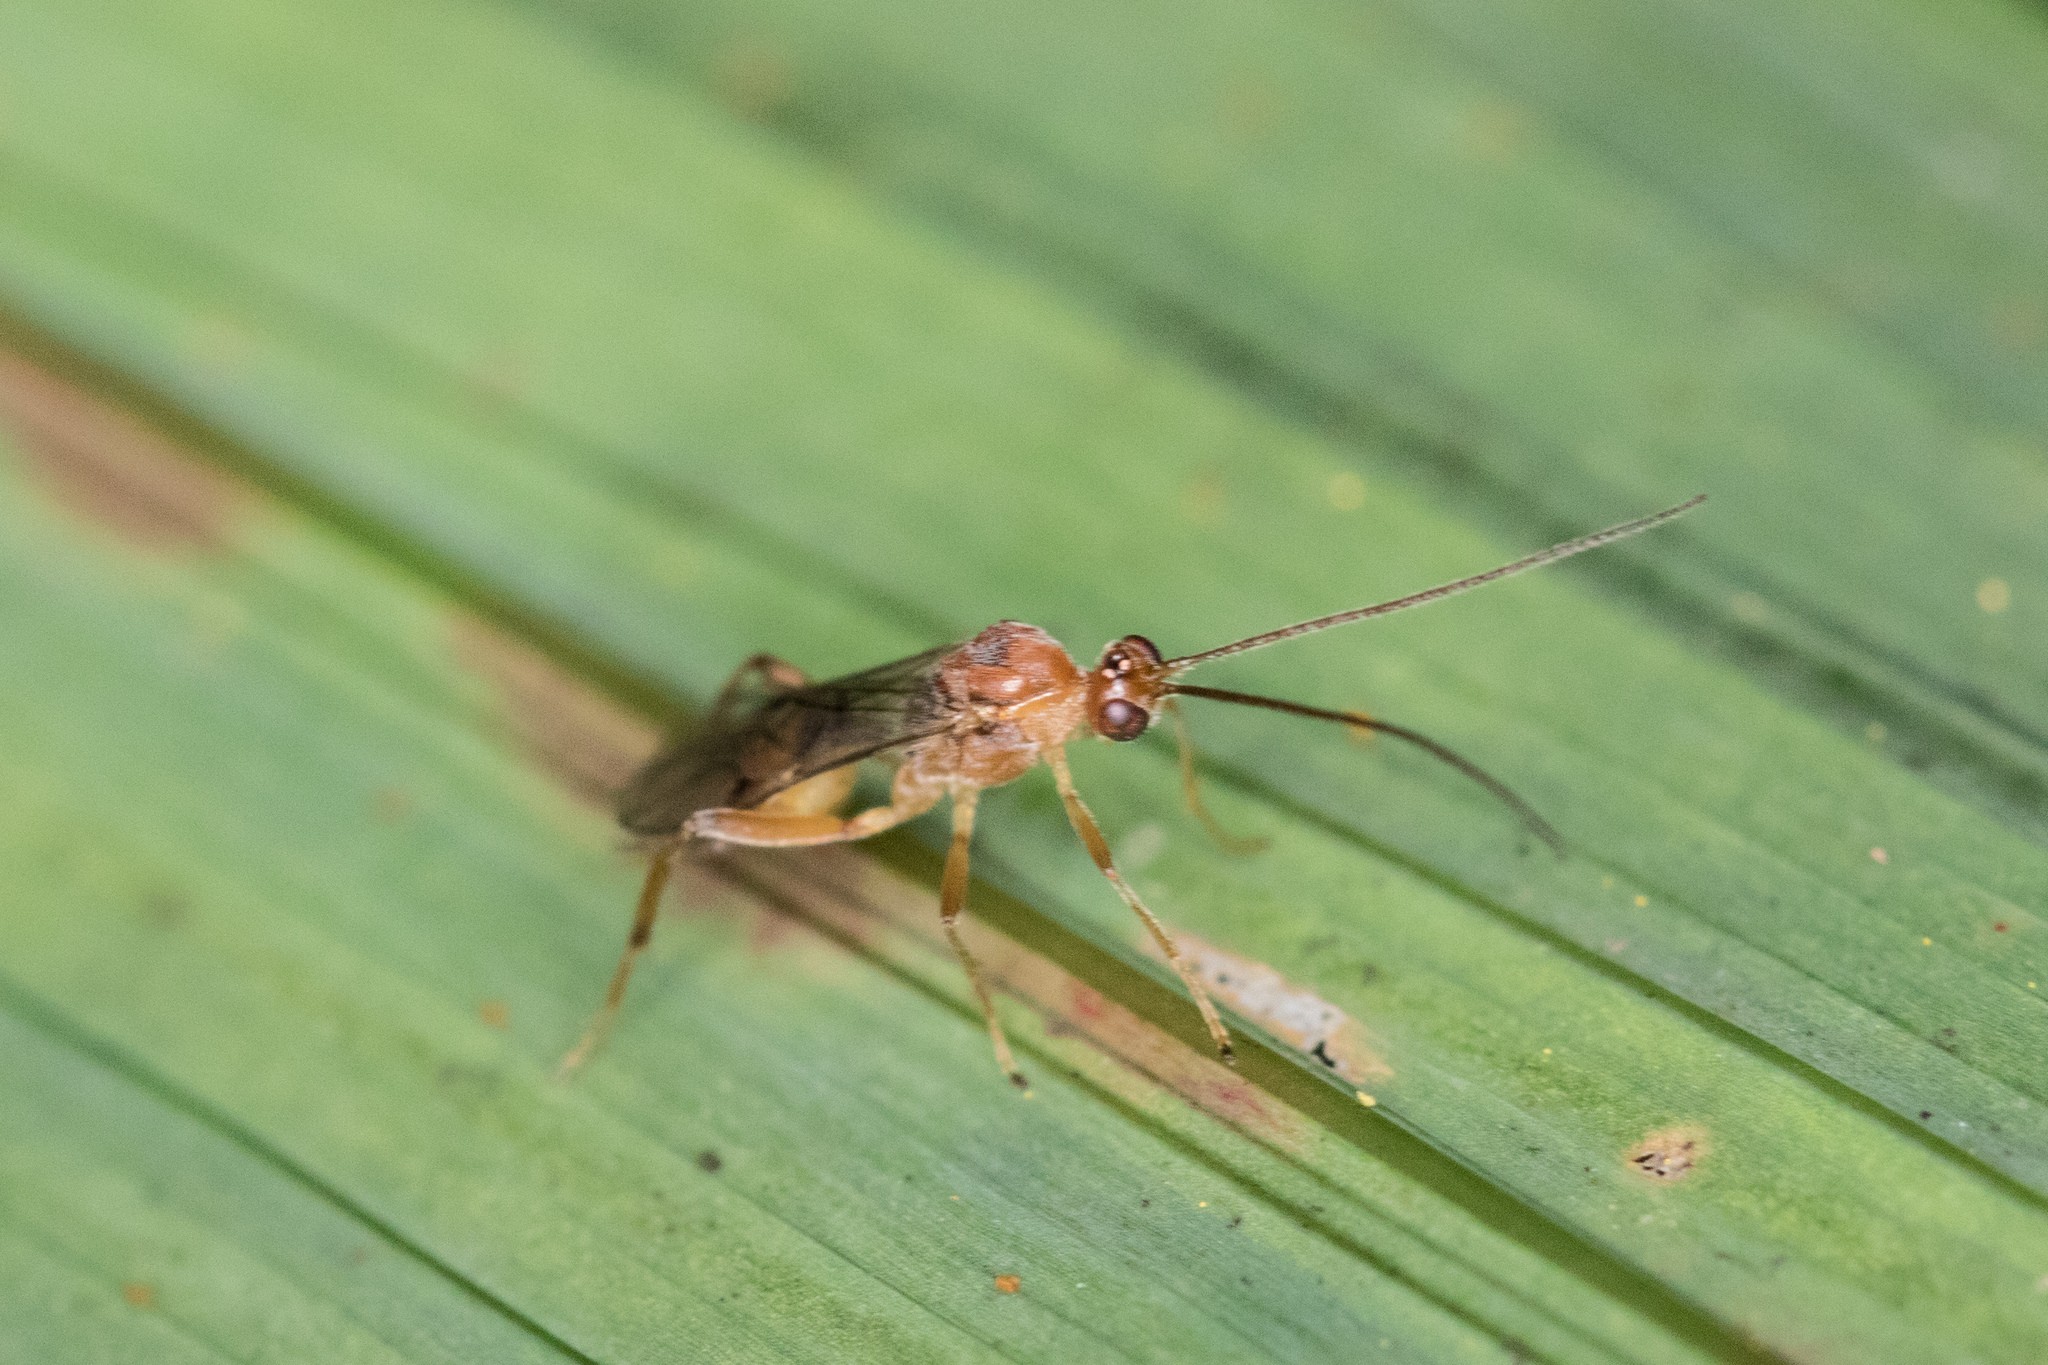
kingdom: Animalia
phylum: Arthropoda
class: Insecta
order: Hymenoptera
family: Braconidae
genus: Meteorus
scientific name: Meteorus pulchricornis
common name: Braconid wasp
